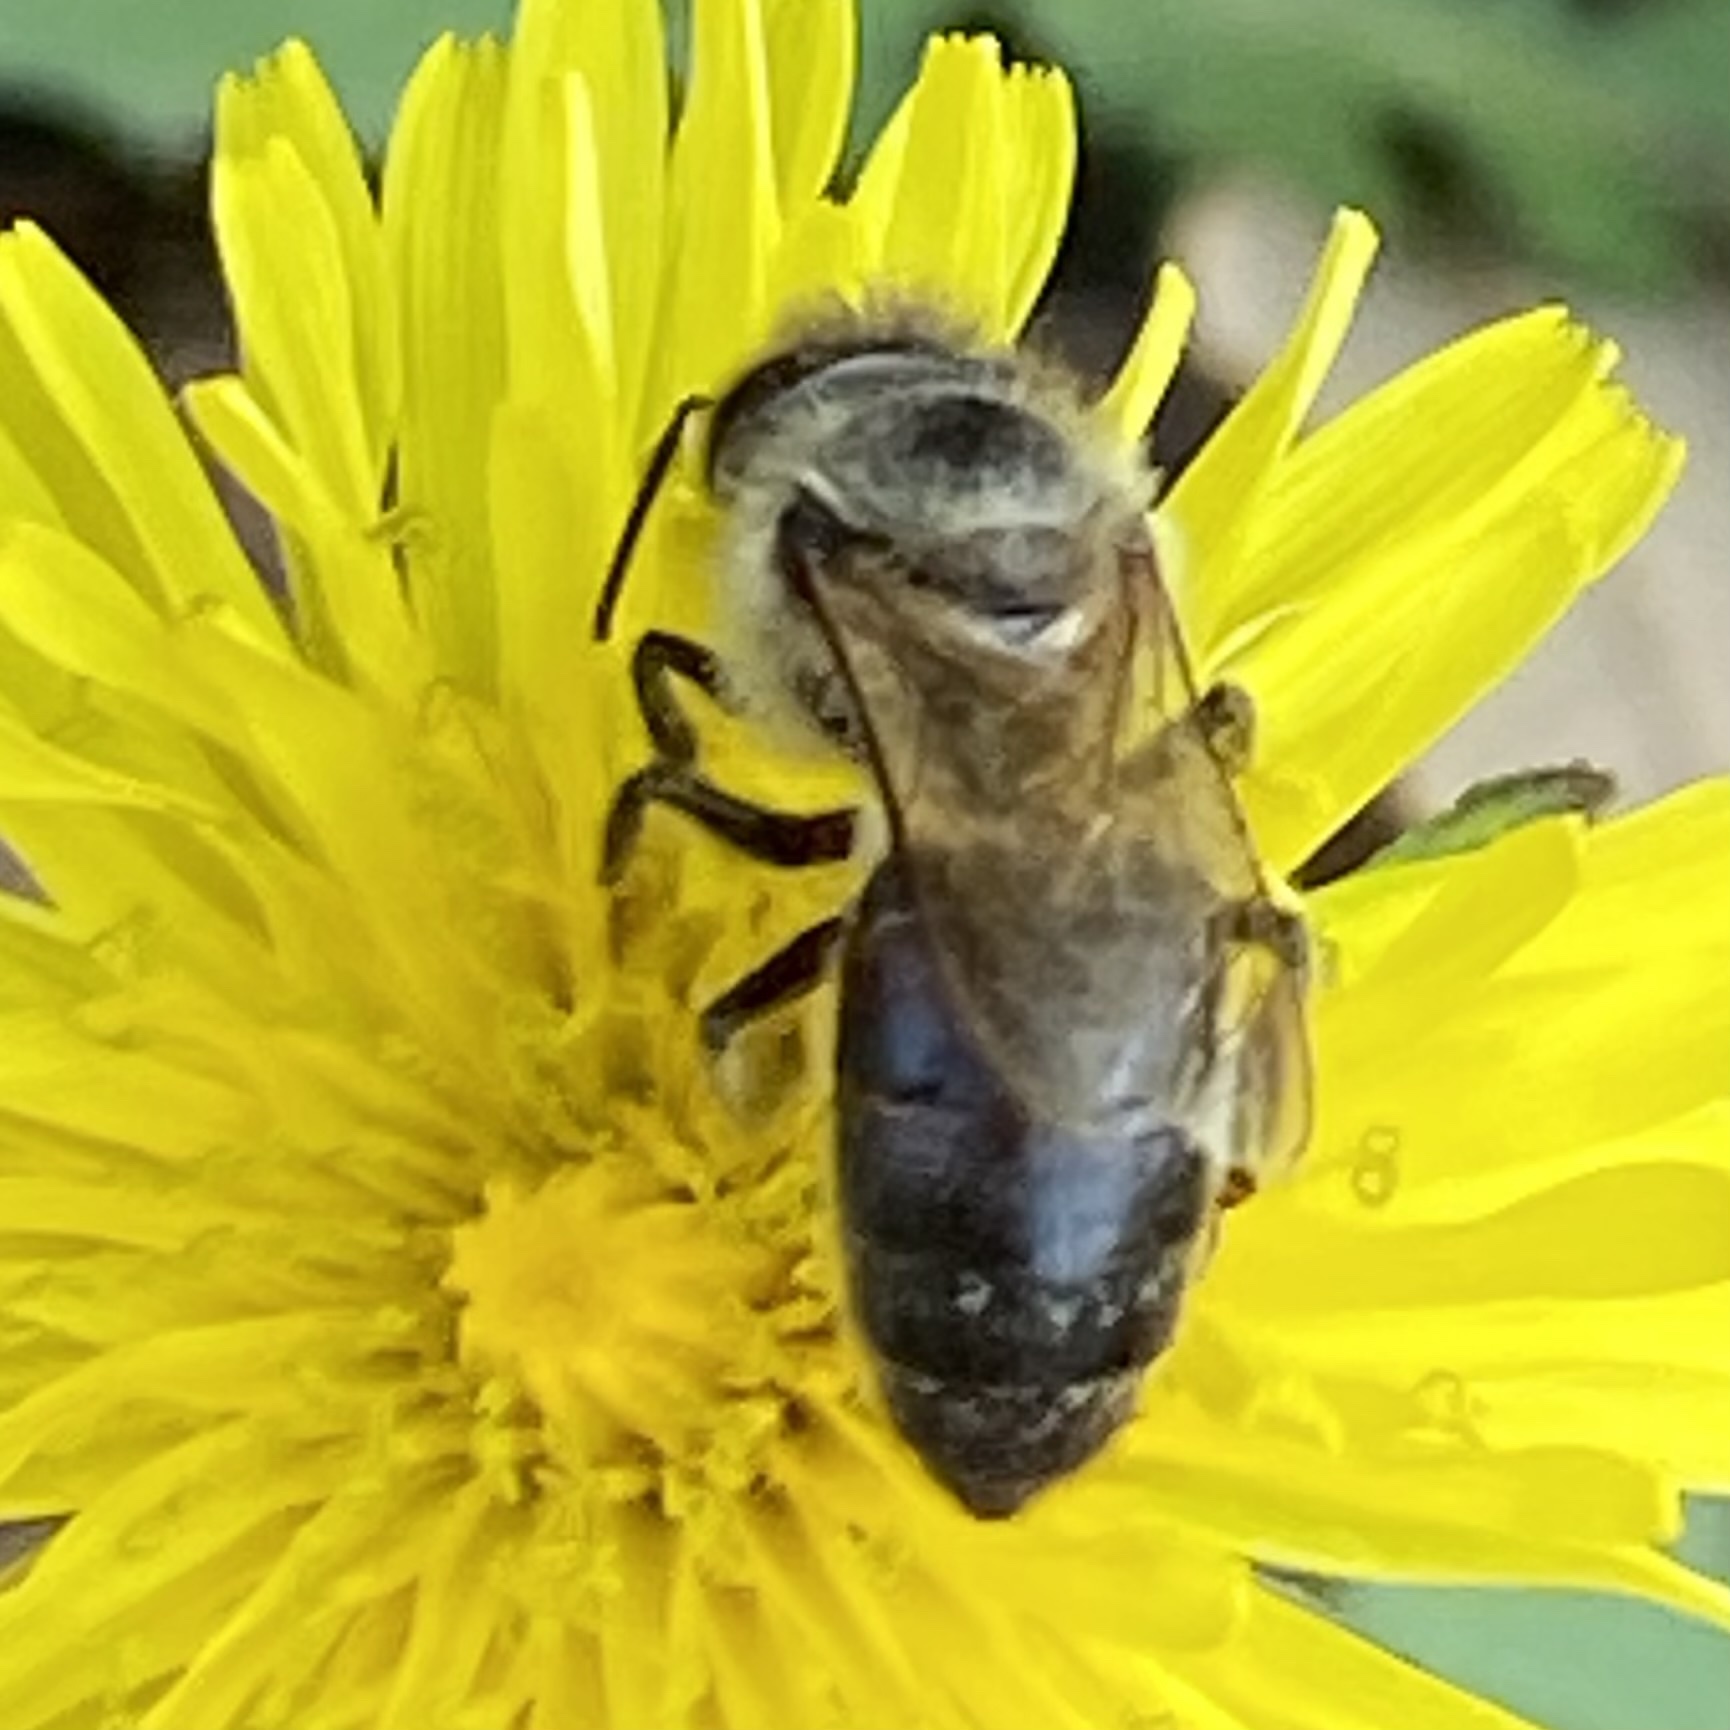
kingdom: Animalia
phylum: Arthropoda
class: Insecta
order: Hymenoptera
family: Apidae
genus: Apis
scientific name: Apis mellifera
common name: Honey bee
